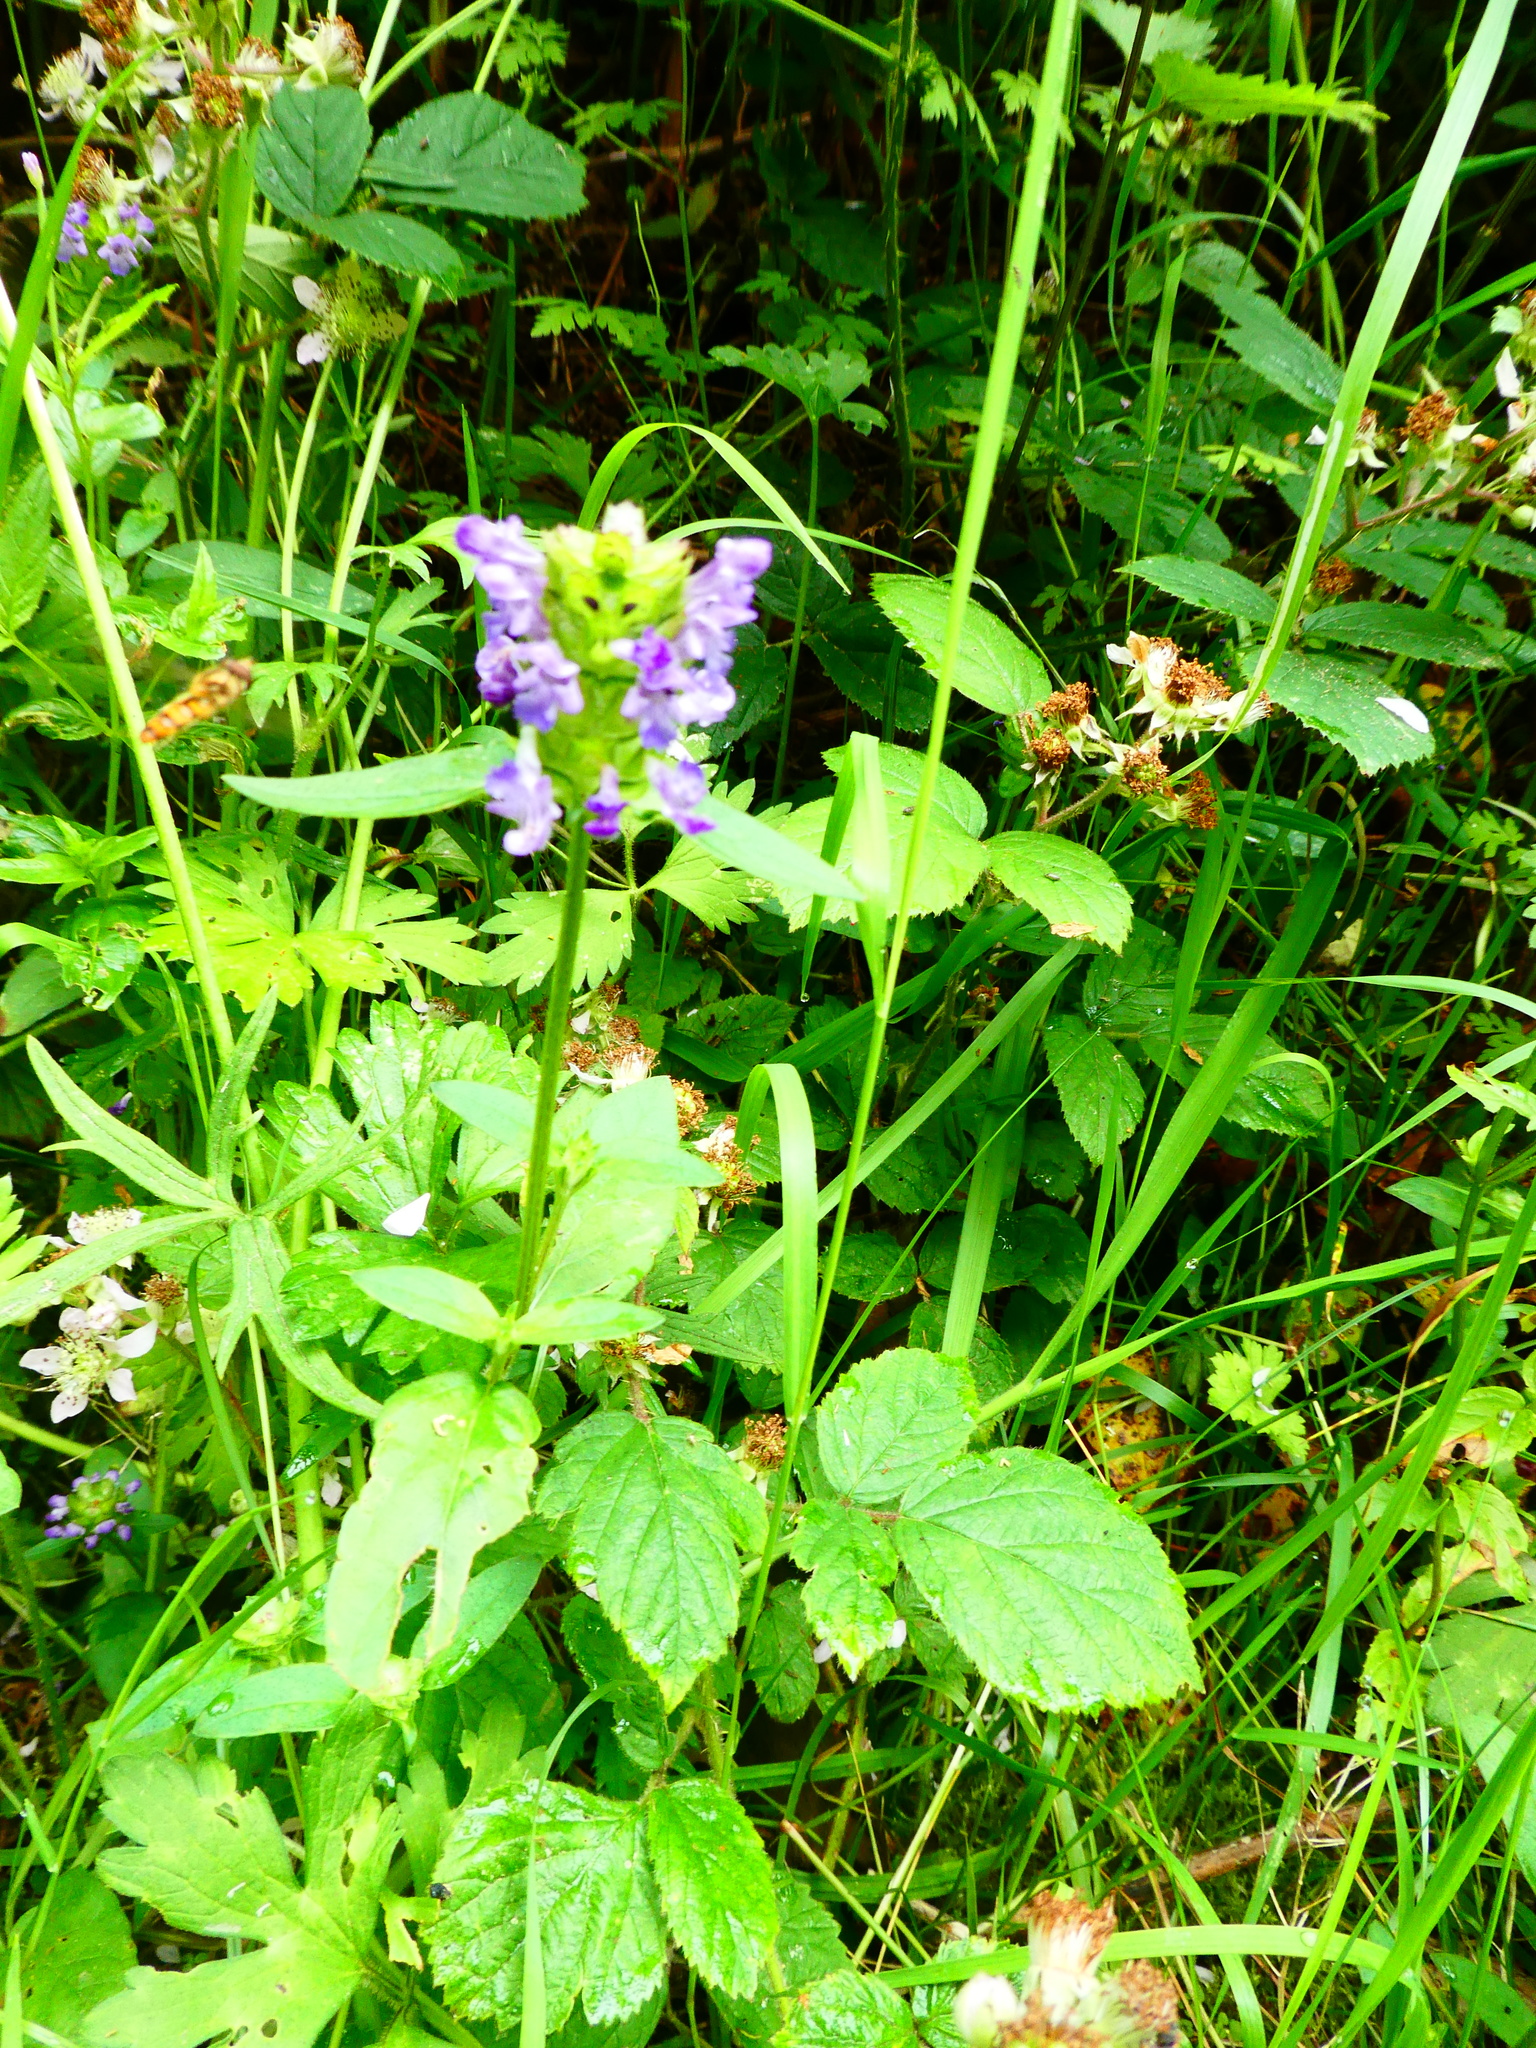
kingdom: Plantae
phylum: Tracheophyta
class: Magnoliopsida
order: Lamiales
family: Lamiaceae
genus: Prunella
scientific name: Prunella vulgaris
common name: Heal-all
